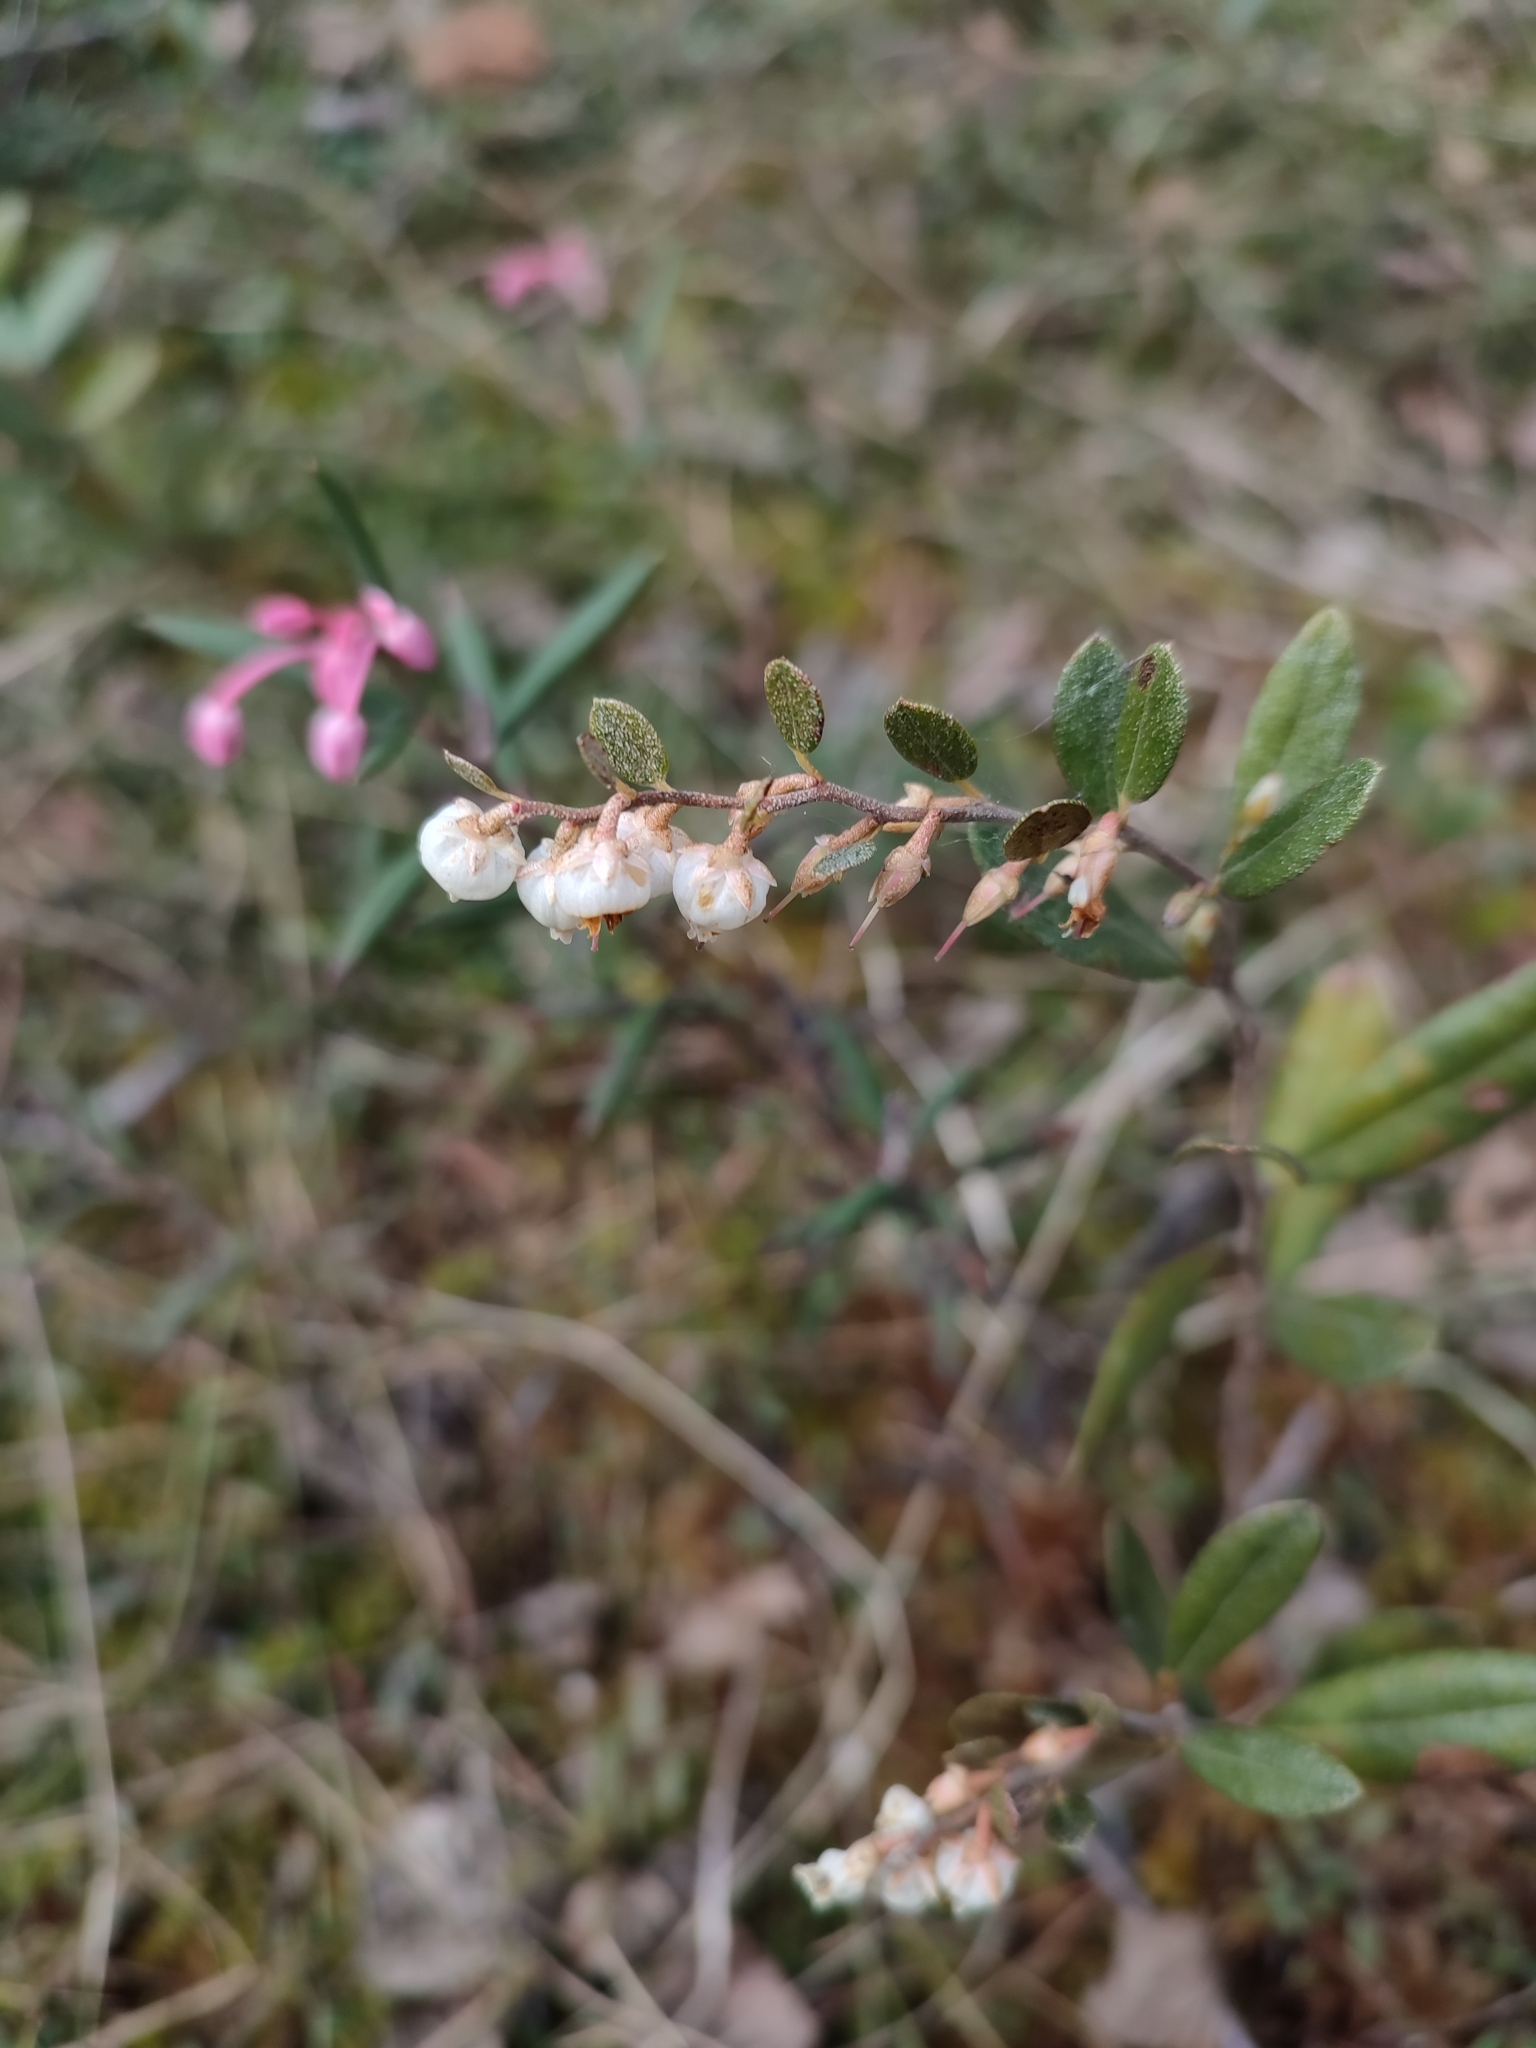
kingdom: Plantae
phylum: Tracheophyta
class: Magnoliopsida
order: Ericales
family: Ericaceae
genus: Chamaedaphne
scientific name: Chamaedaphne calyculata
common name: Leatherleaf
